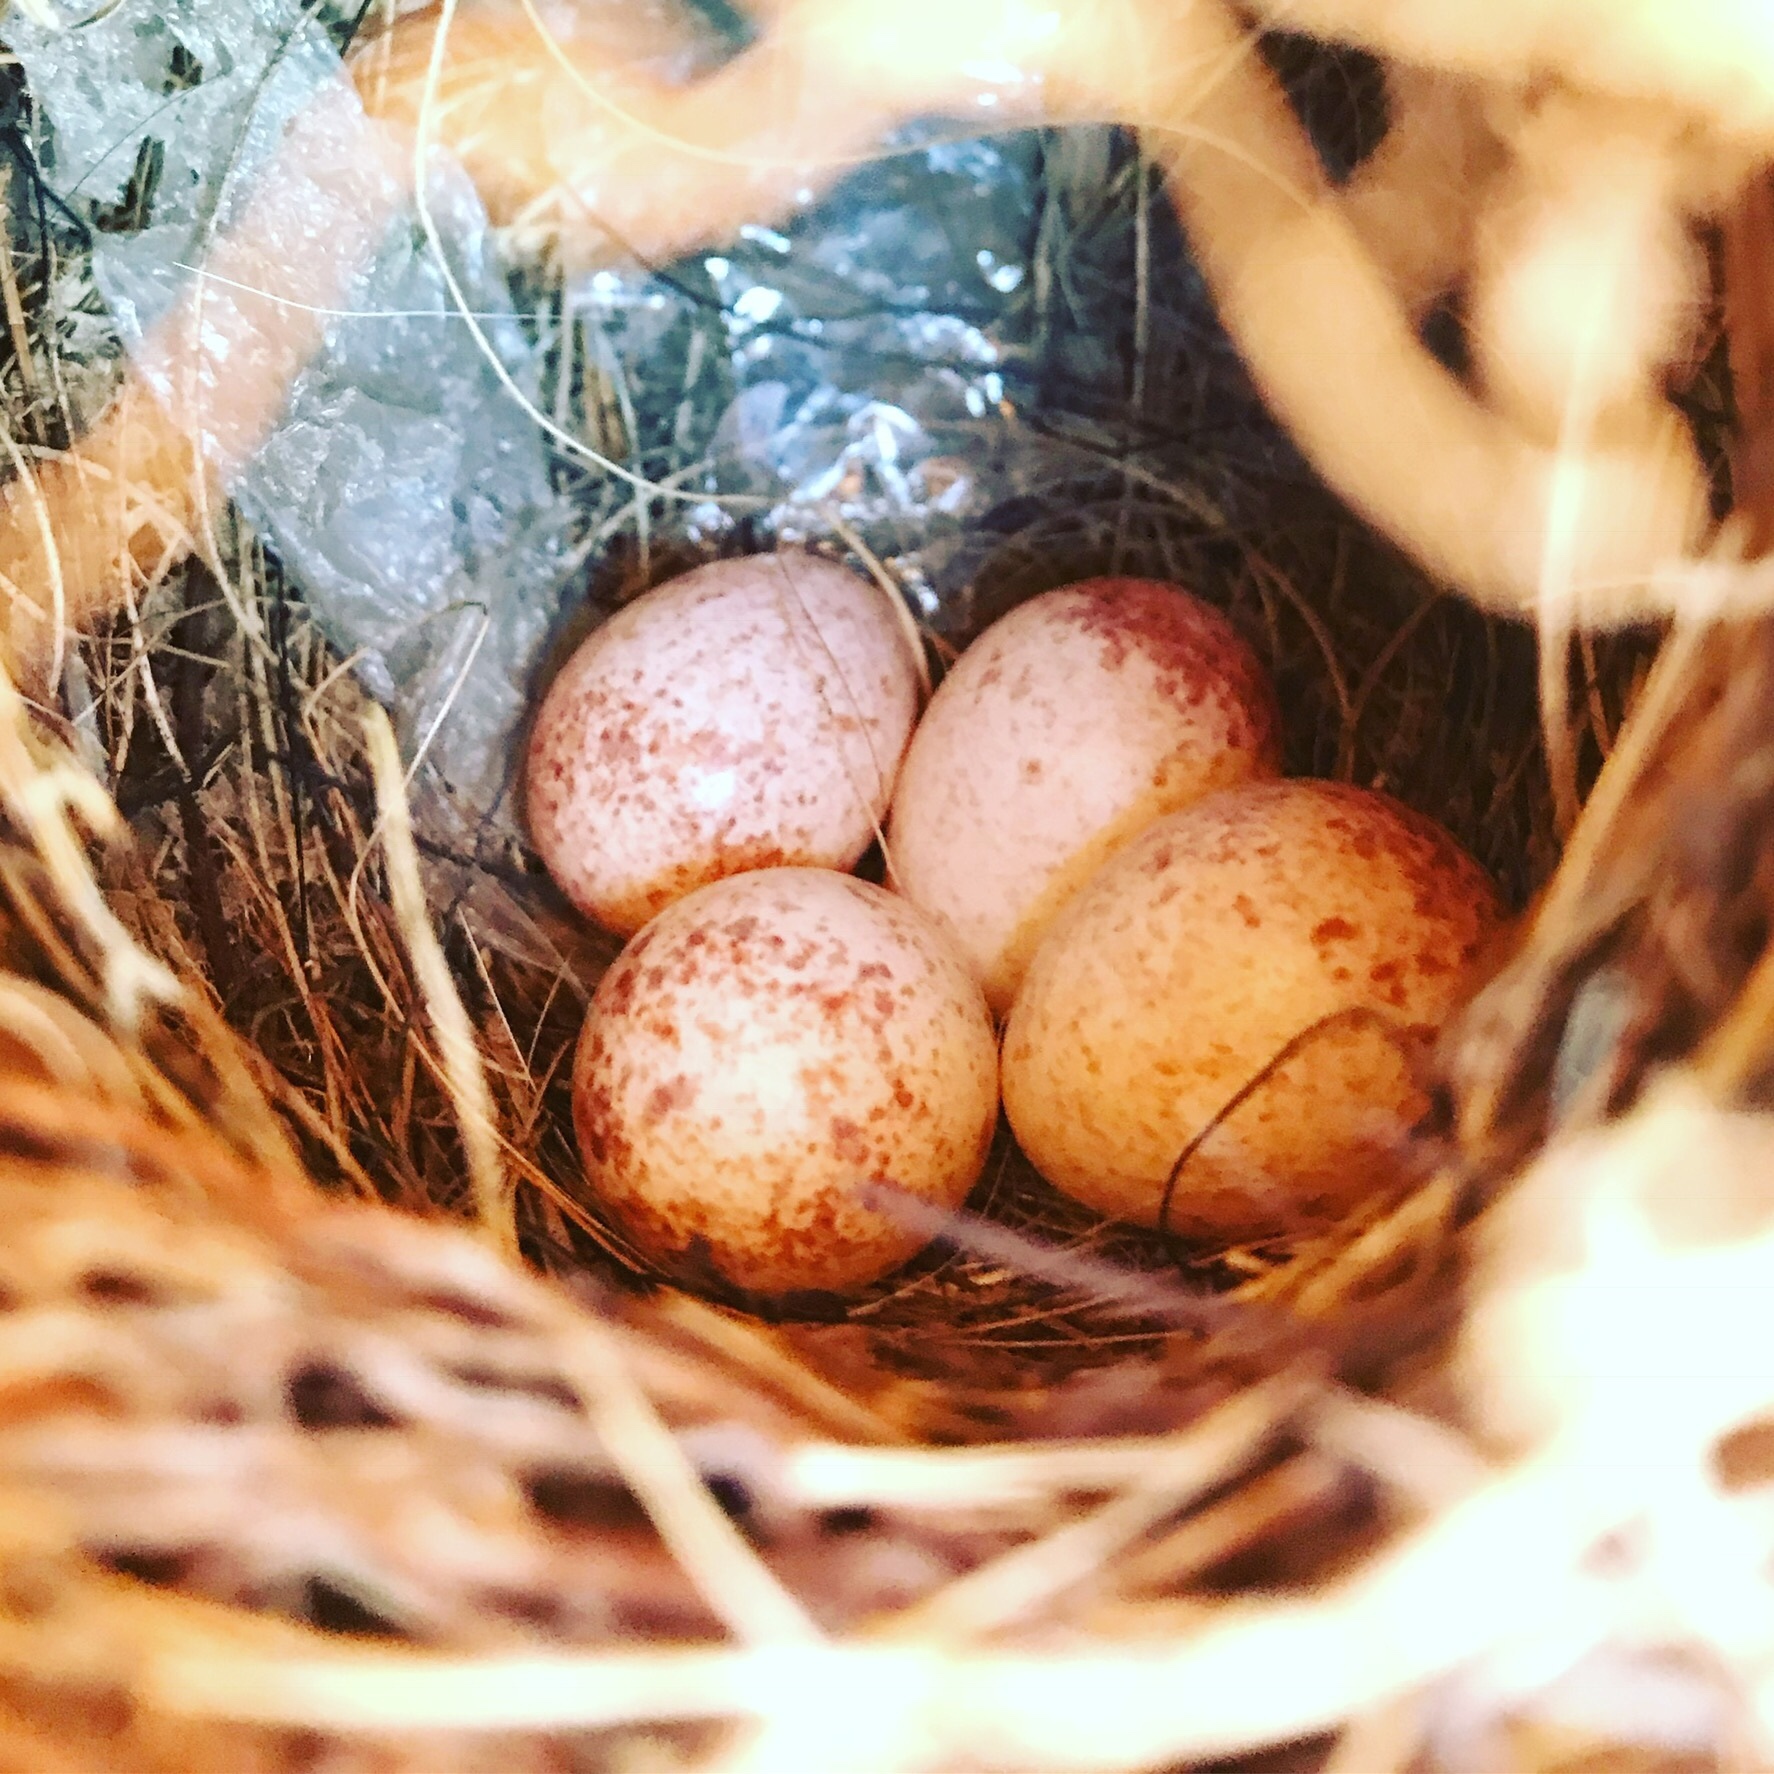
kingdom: Animalia
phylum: Chordata
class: Aves
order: Passeriformes
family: Troglodytidae
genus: Thryothorus
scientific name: Thryothorus ludovicianus
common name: Carolina wren
